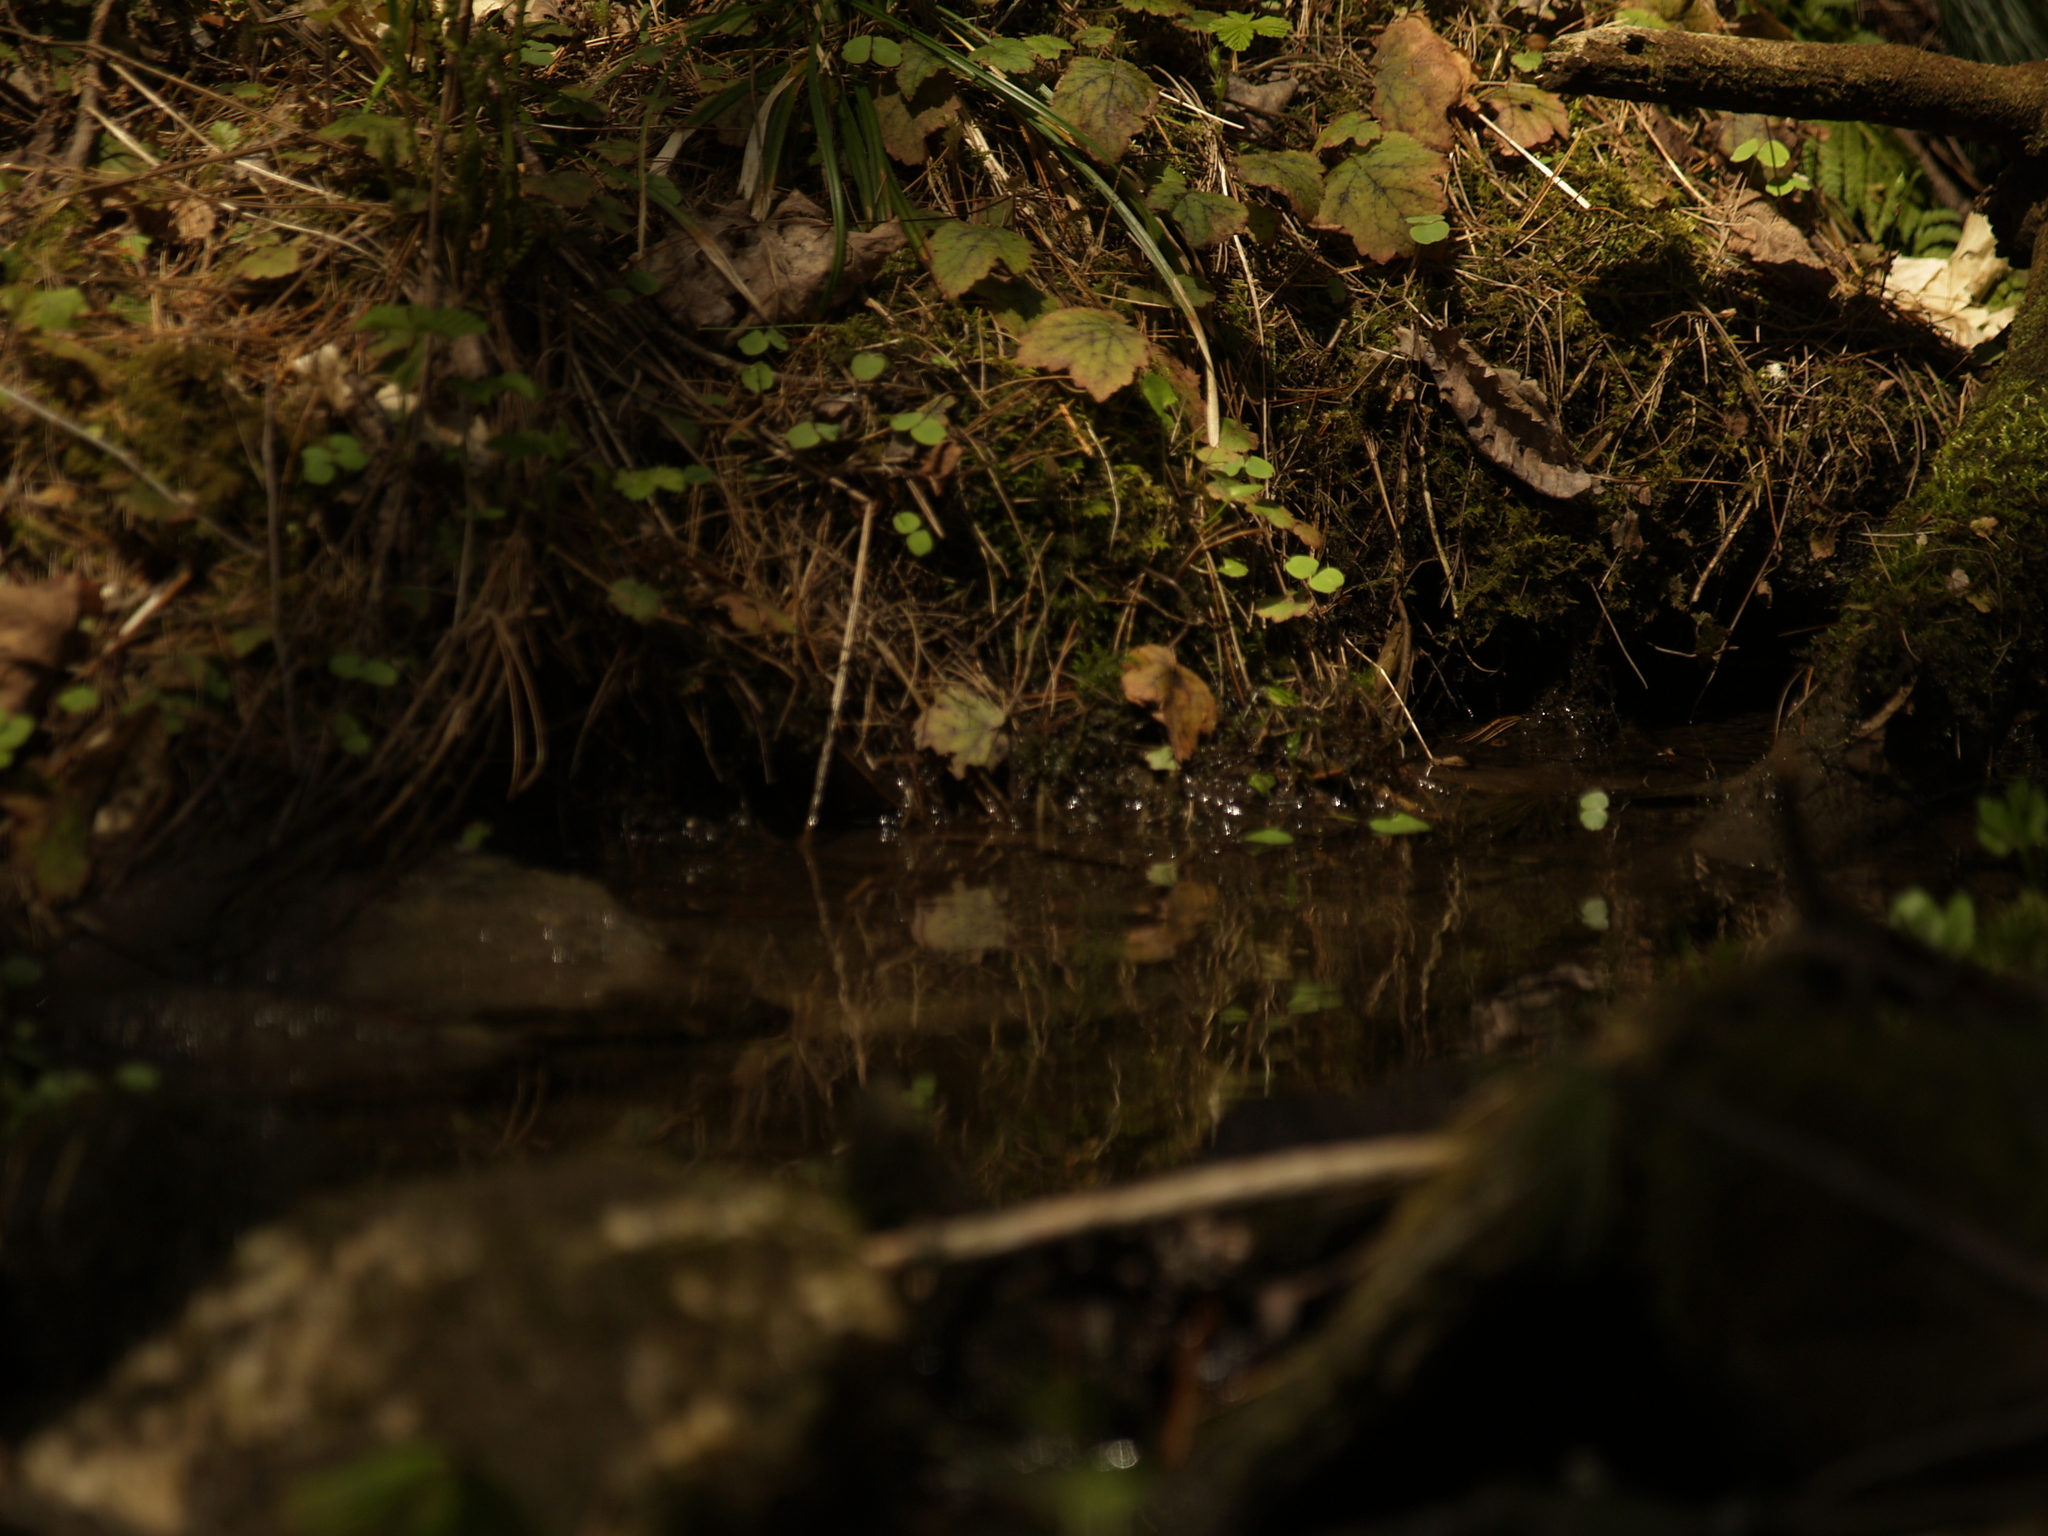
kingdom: Plantae
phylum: Tracheophyta
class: Magnoliopsida
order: Saxifragales
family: Saxifragaceae
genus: Tiarella
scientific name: Tiarella stolonifera
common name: Stoloniferous foamflower
